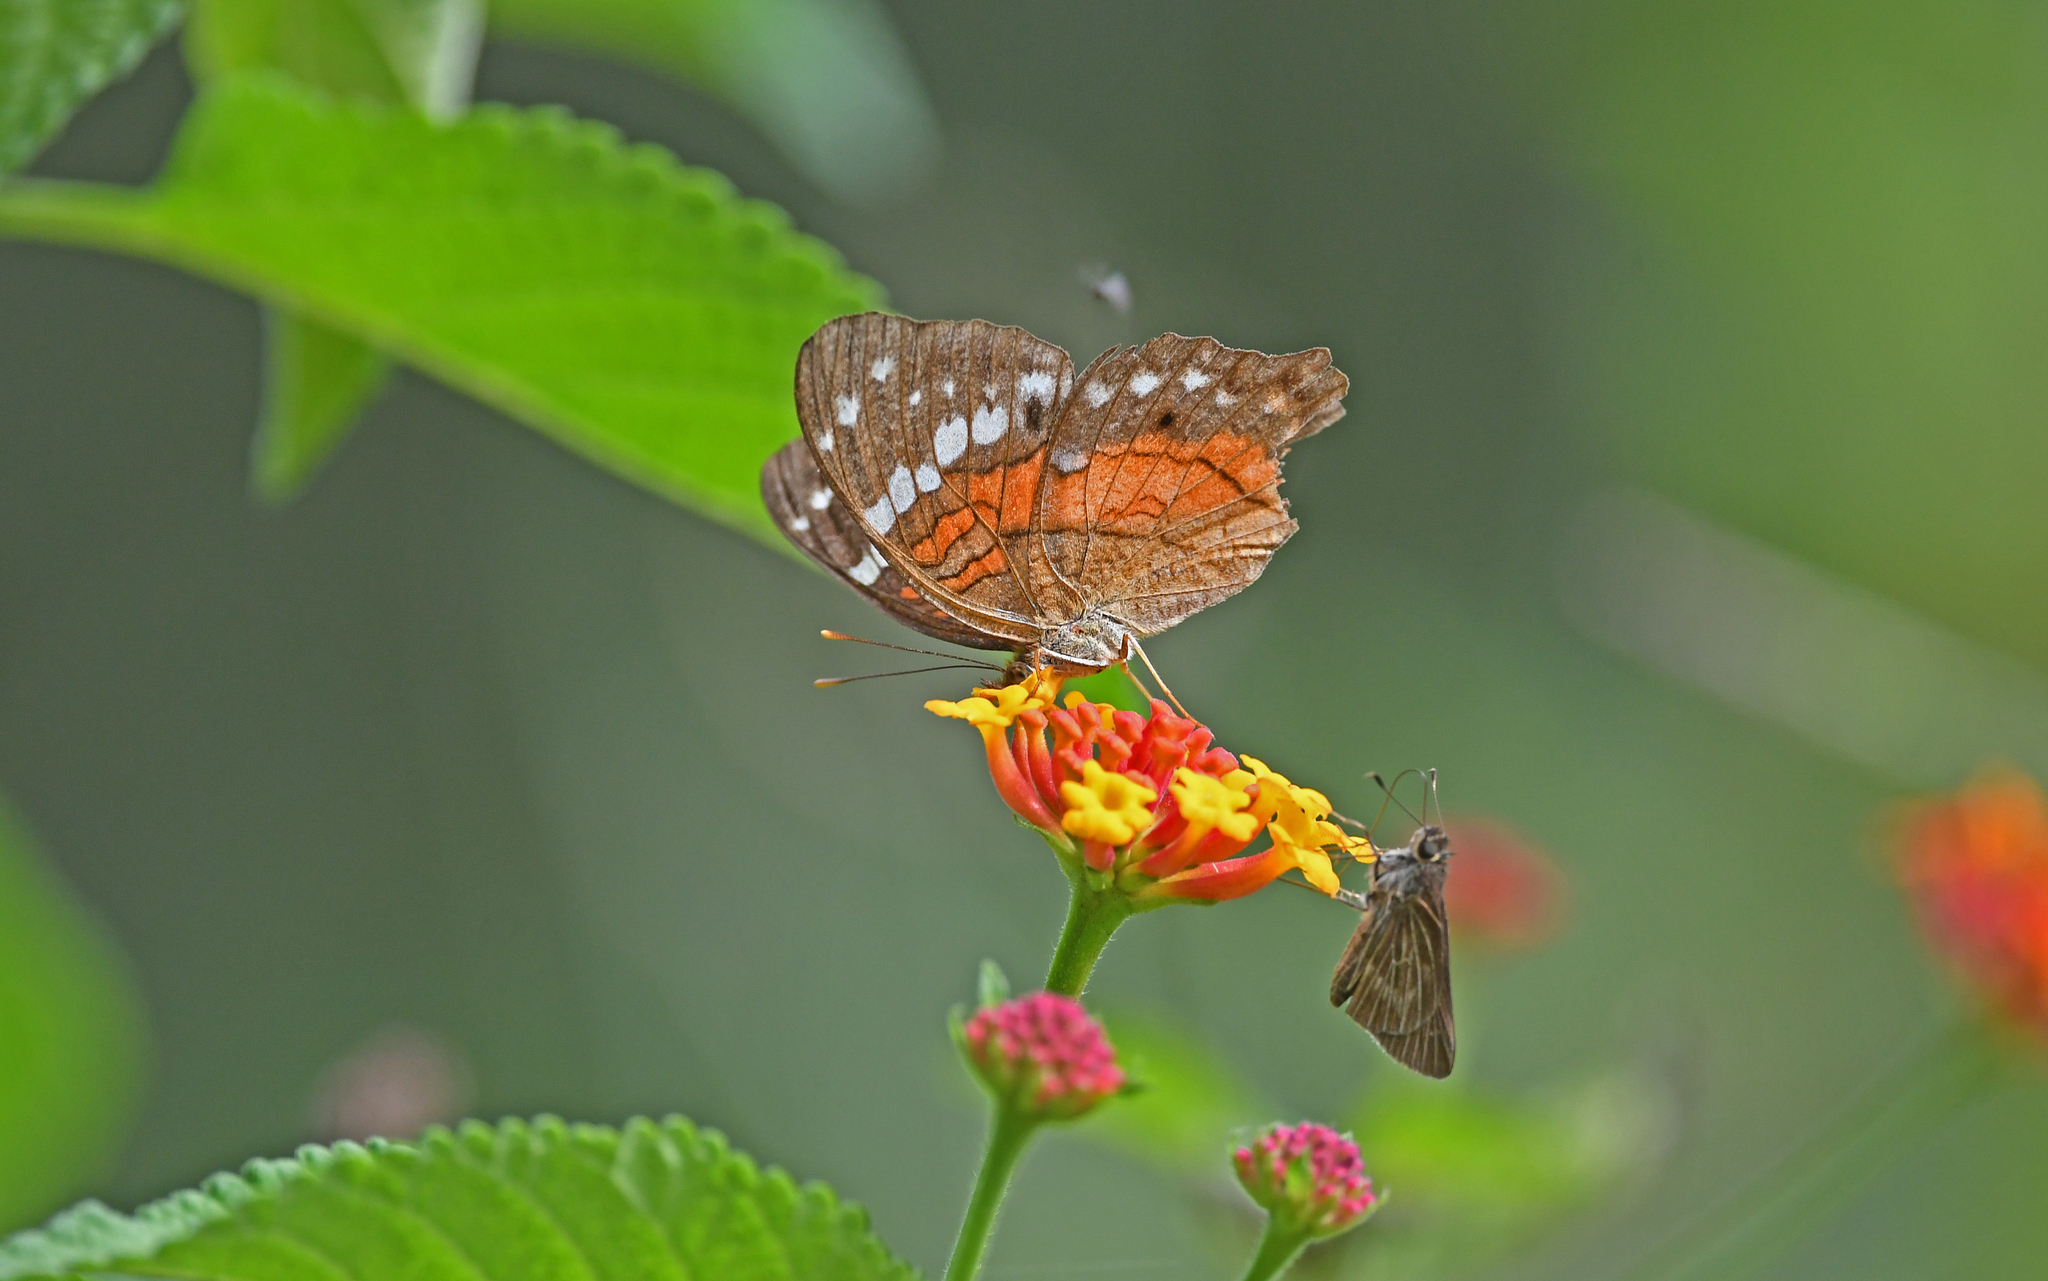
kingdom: Animalia
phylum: Arthropoda
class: Insecta
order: Lepidoptera
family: Nymphalidae
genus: Anartia
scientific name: Anartia amathea
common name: Red peacock
